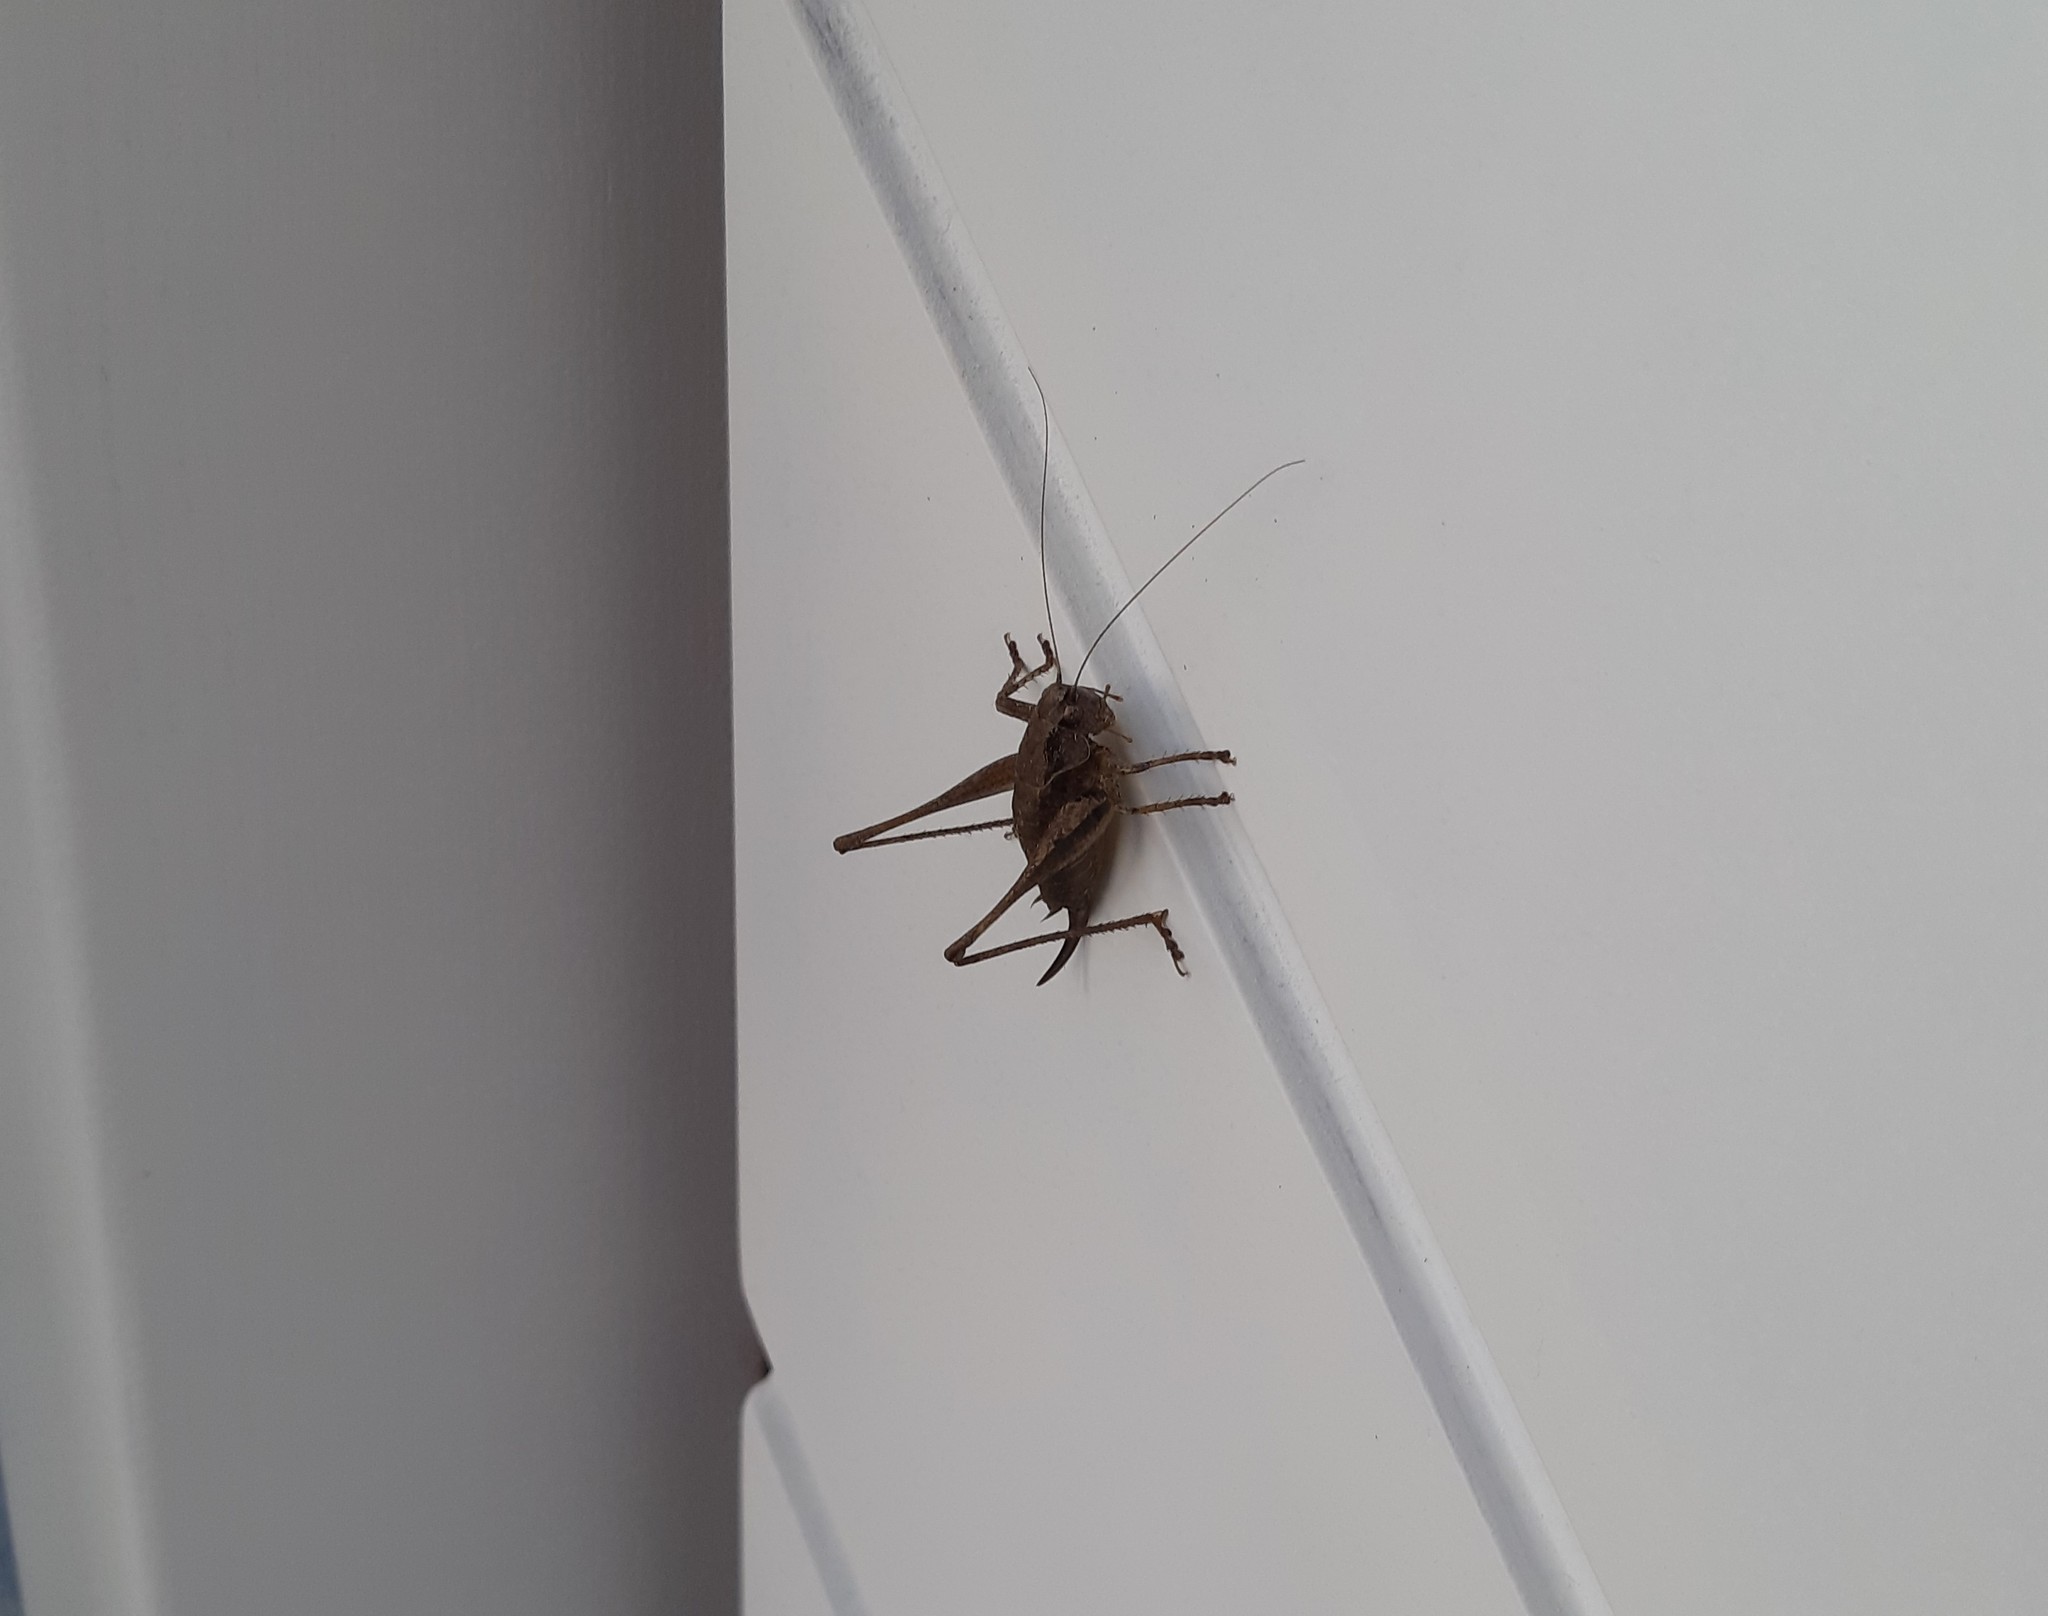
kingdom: Animalia
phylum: Arthropoda
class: Insecta
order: Orthoptera
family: Tettigoniidae
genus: Pholidoptera
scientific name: Pholidoptera griseoaptera
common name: Dark bush-cricket
